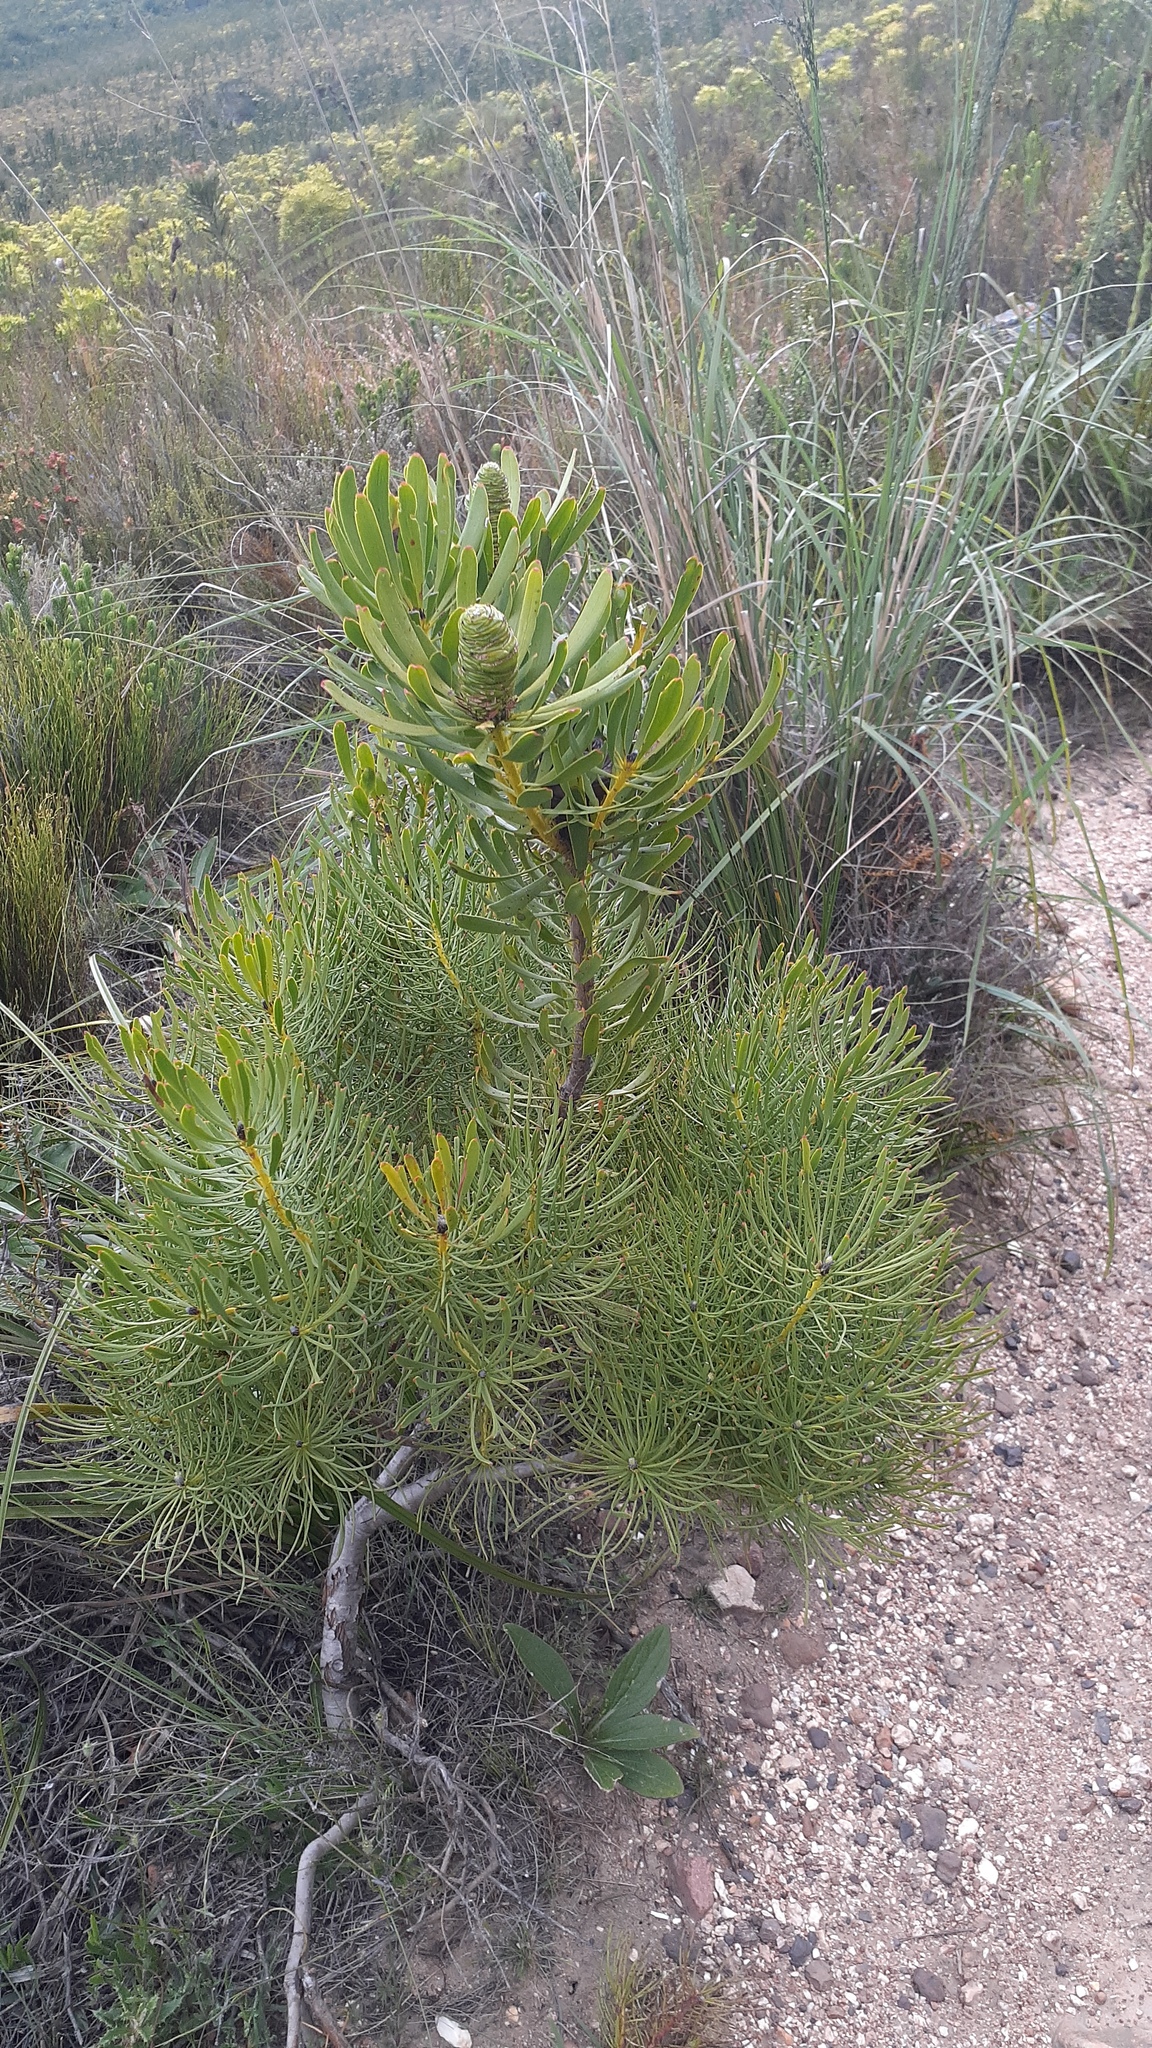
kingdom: Plantae
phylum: Tracheophyta
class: Magnoliopsida
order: Proteales
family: Proteaceae
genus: Leucadendron
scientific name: Leucadendron platyspermum
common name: Plate-seed conebush
